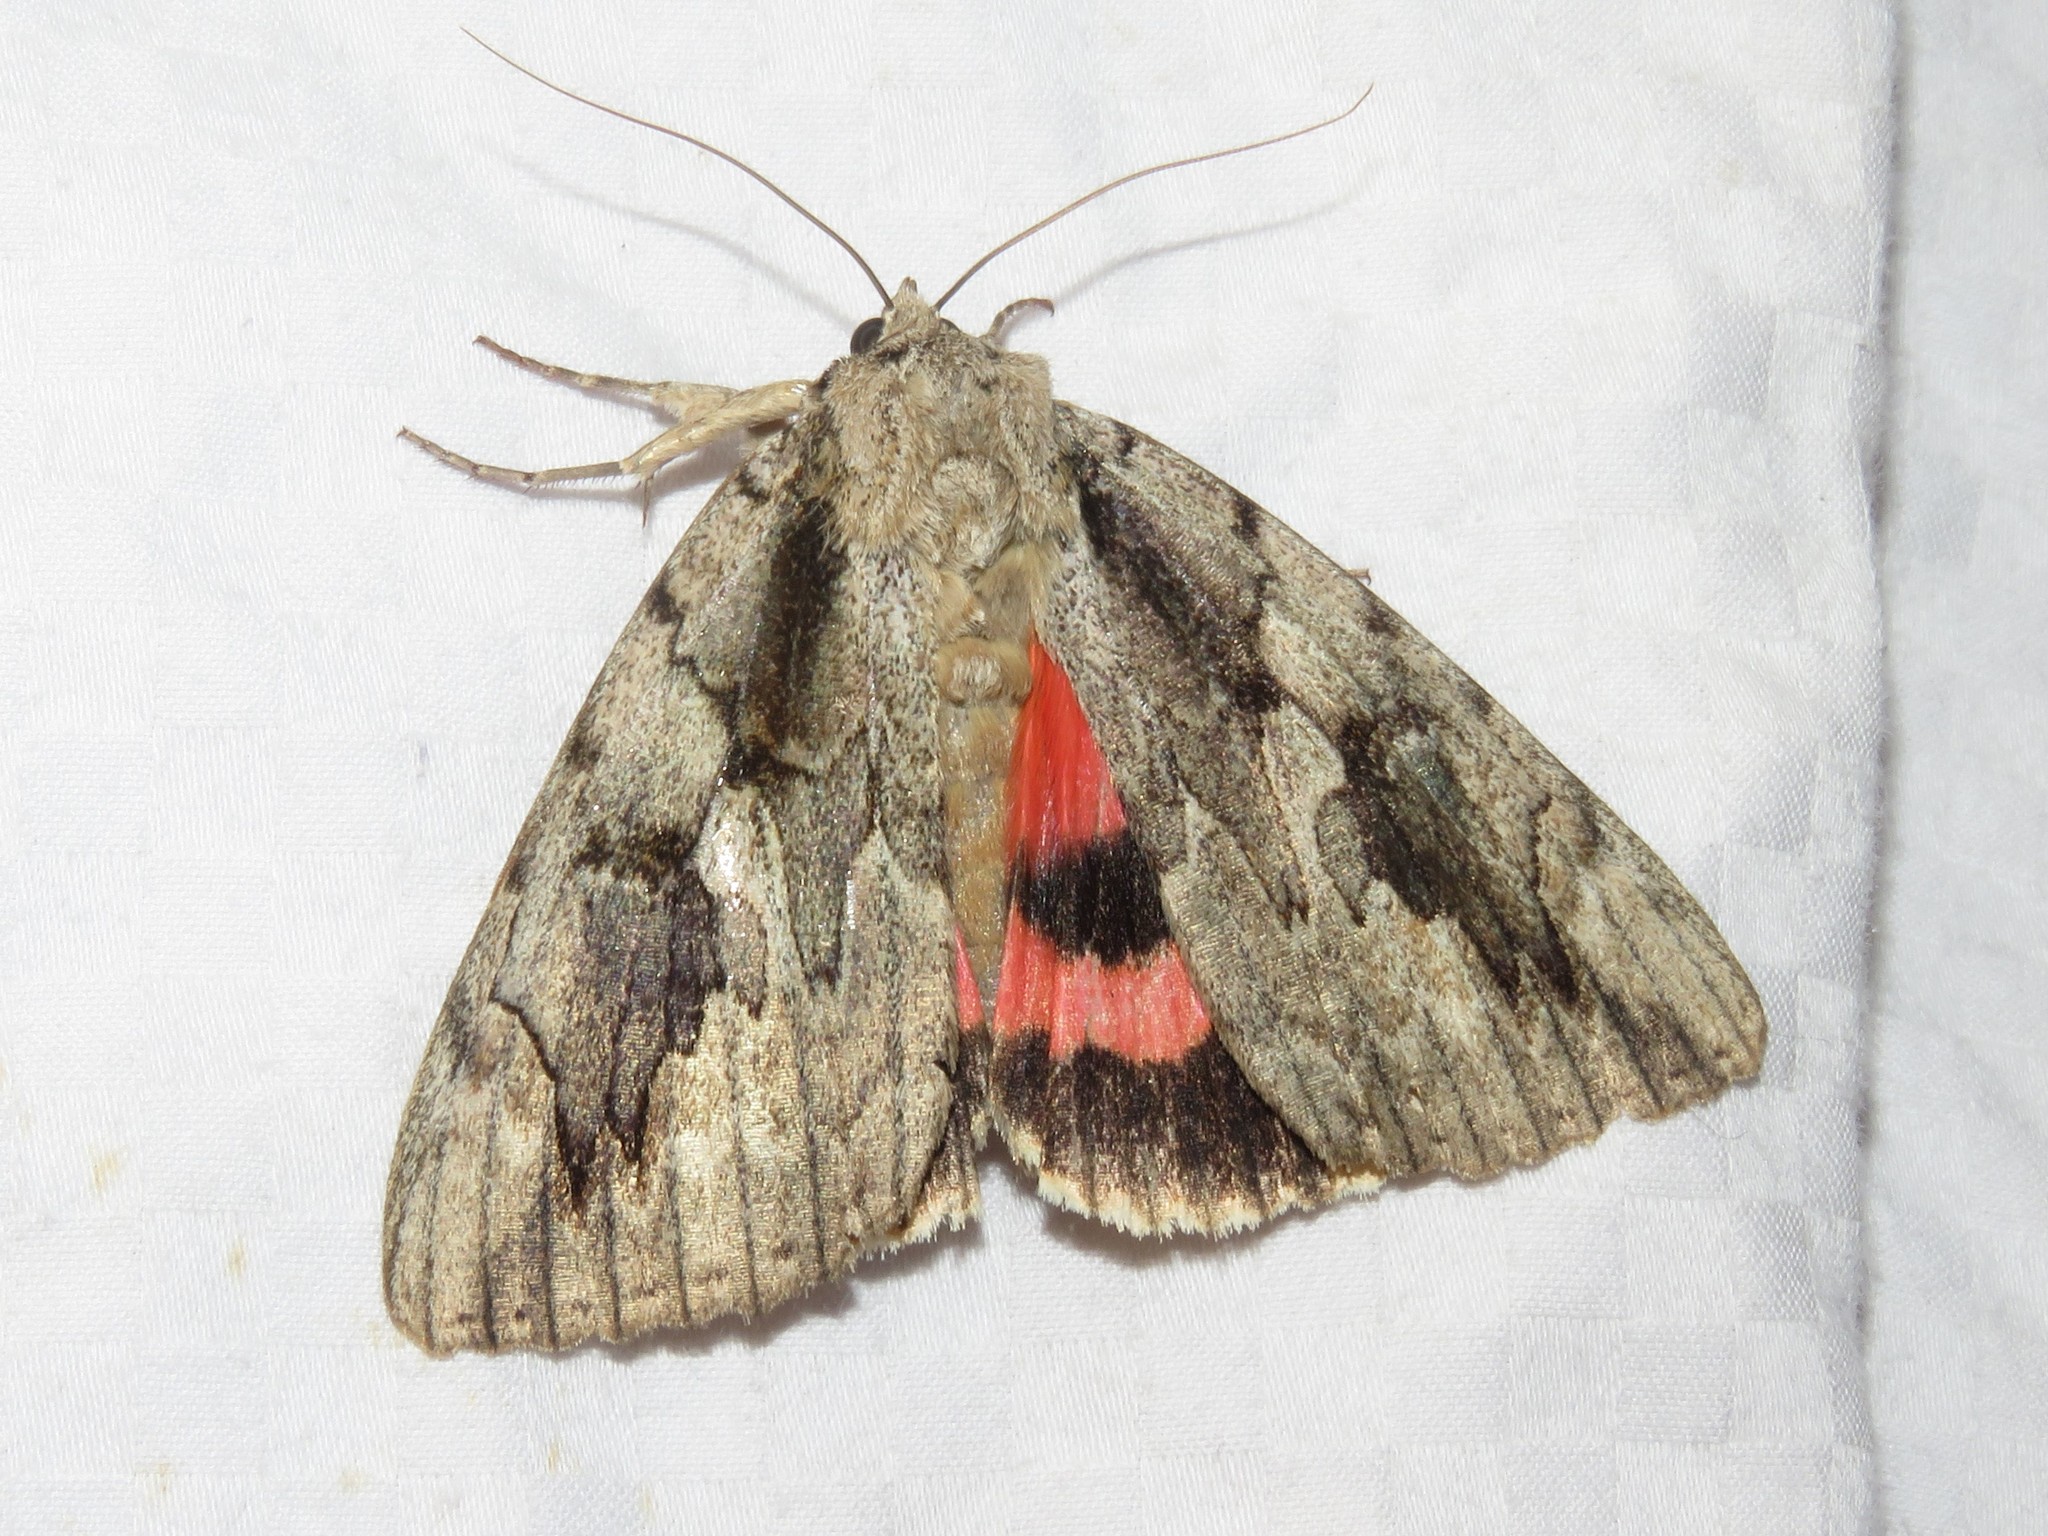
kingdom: Animalia
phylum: Arthropoda
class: Insecta
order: Lepidoptera
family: Erebidae
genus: Catocala
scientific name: Catocala amatrix
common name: Sweetheart underwing
